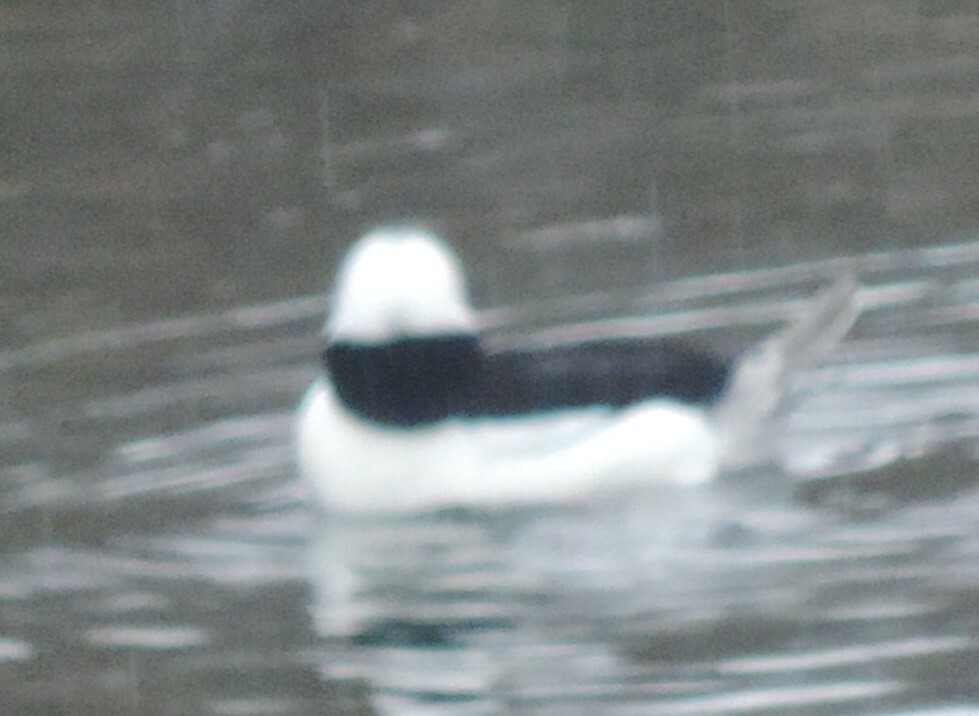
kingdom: Animalia
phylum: Chordata
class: Aves
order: Anseriformes
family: Anatidae
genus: Bucephala
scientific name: Bucephala albeola
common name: Bufflehead
